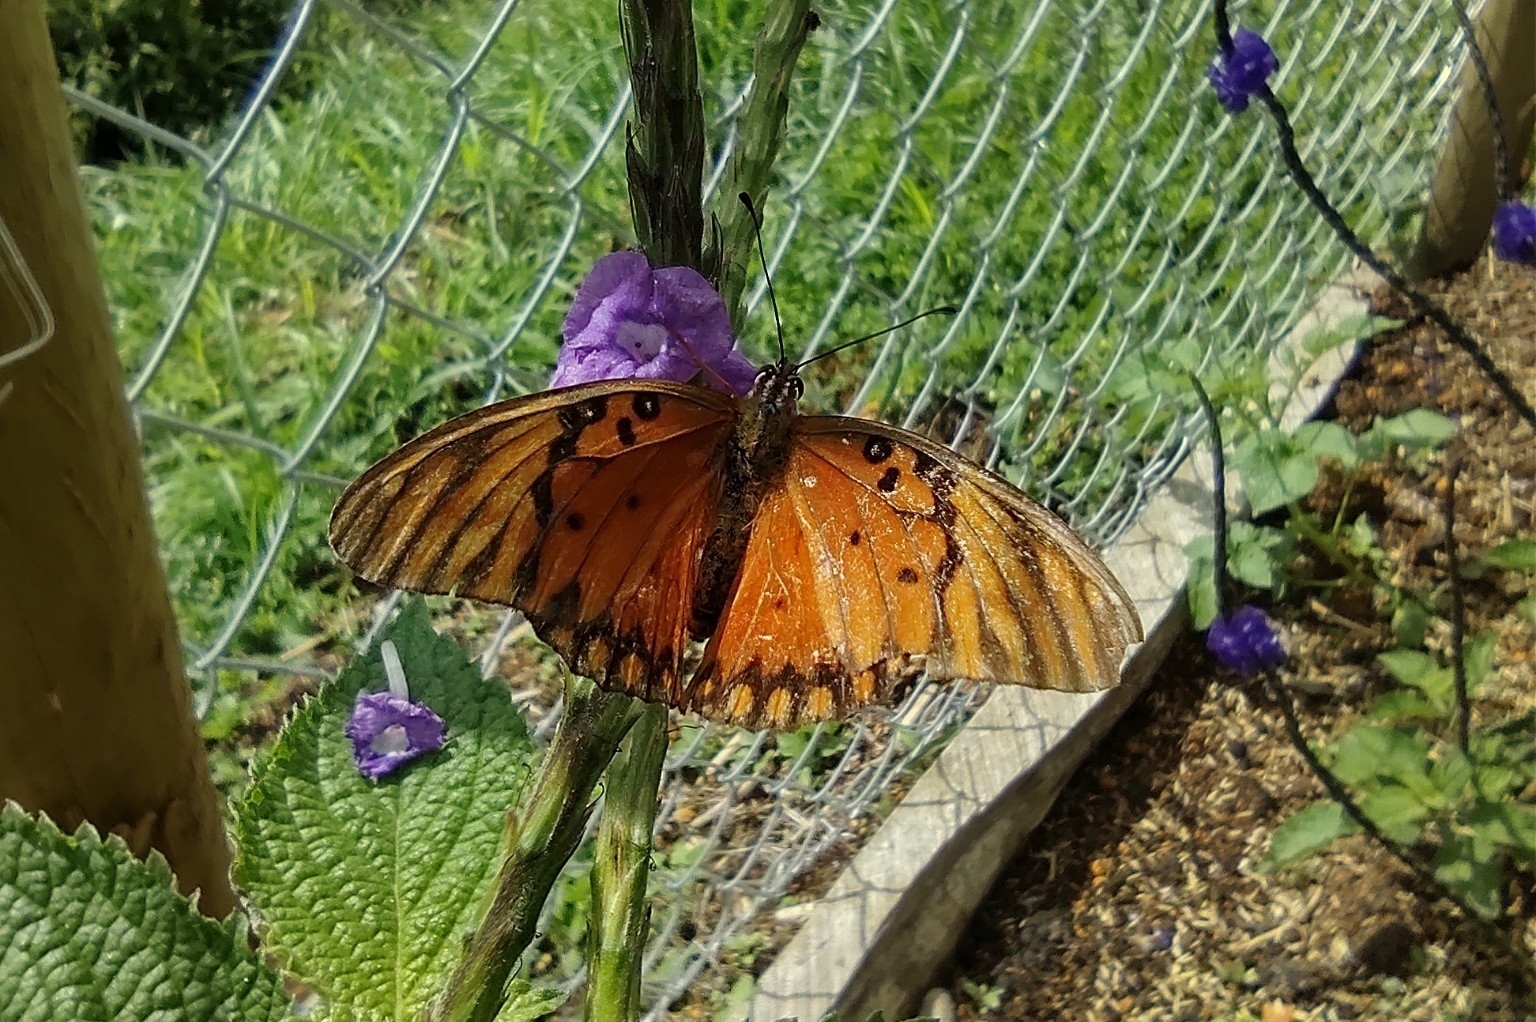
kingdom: Animalia
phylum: Arthropoda
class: Insecta
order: Lepidoptera
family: Nymphalidae
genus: Dione
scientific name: Dione vanillae
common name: Gulf fritillary
